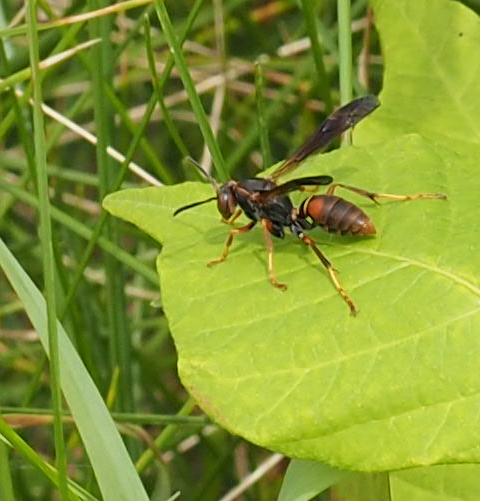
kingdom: Animalia
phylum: Arthropoda
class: Insecta
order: Hymenoptera
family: Eumenidae
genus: Polistes
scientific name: Polistes fuscatus
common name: Dark paper wasp
